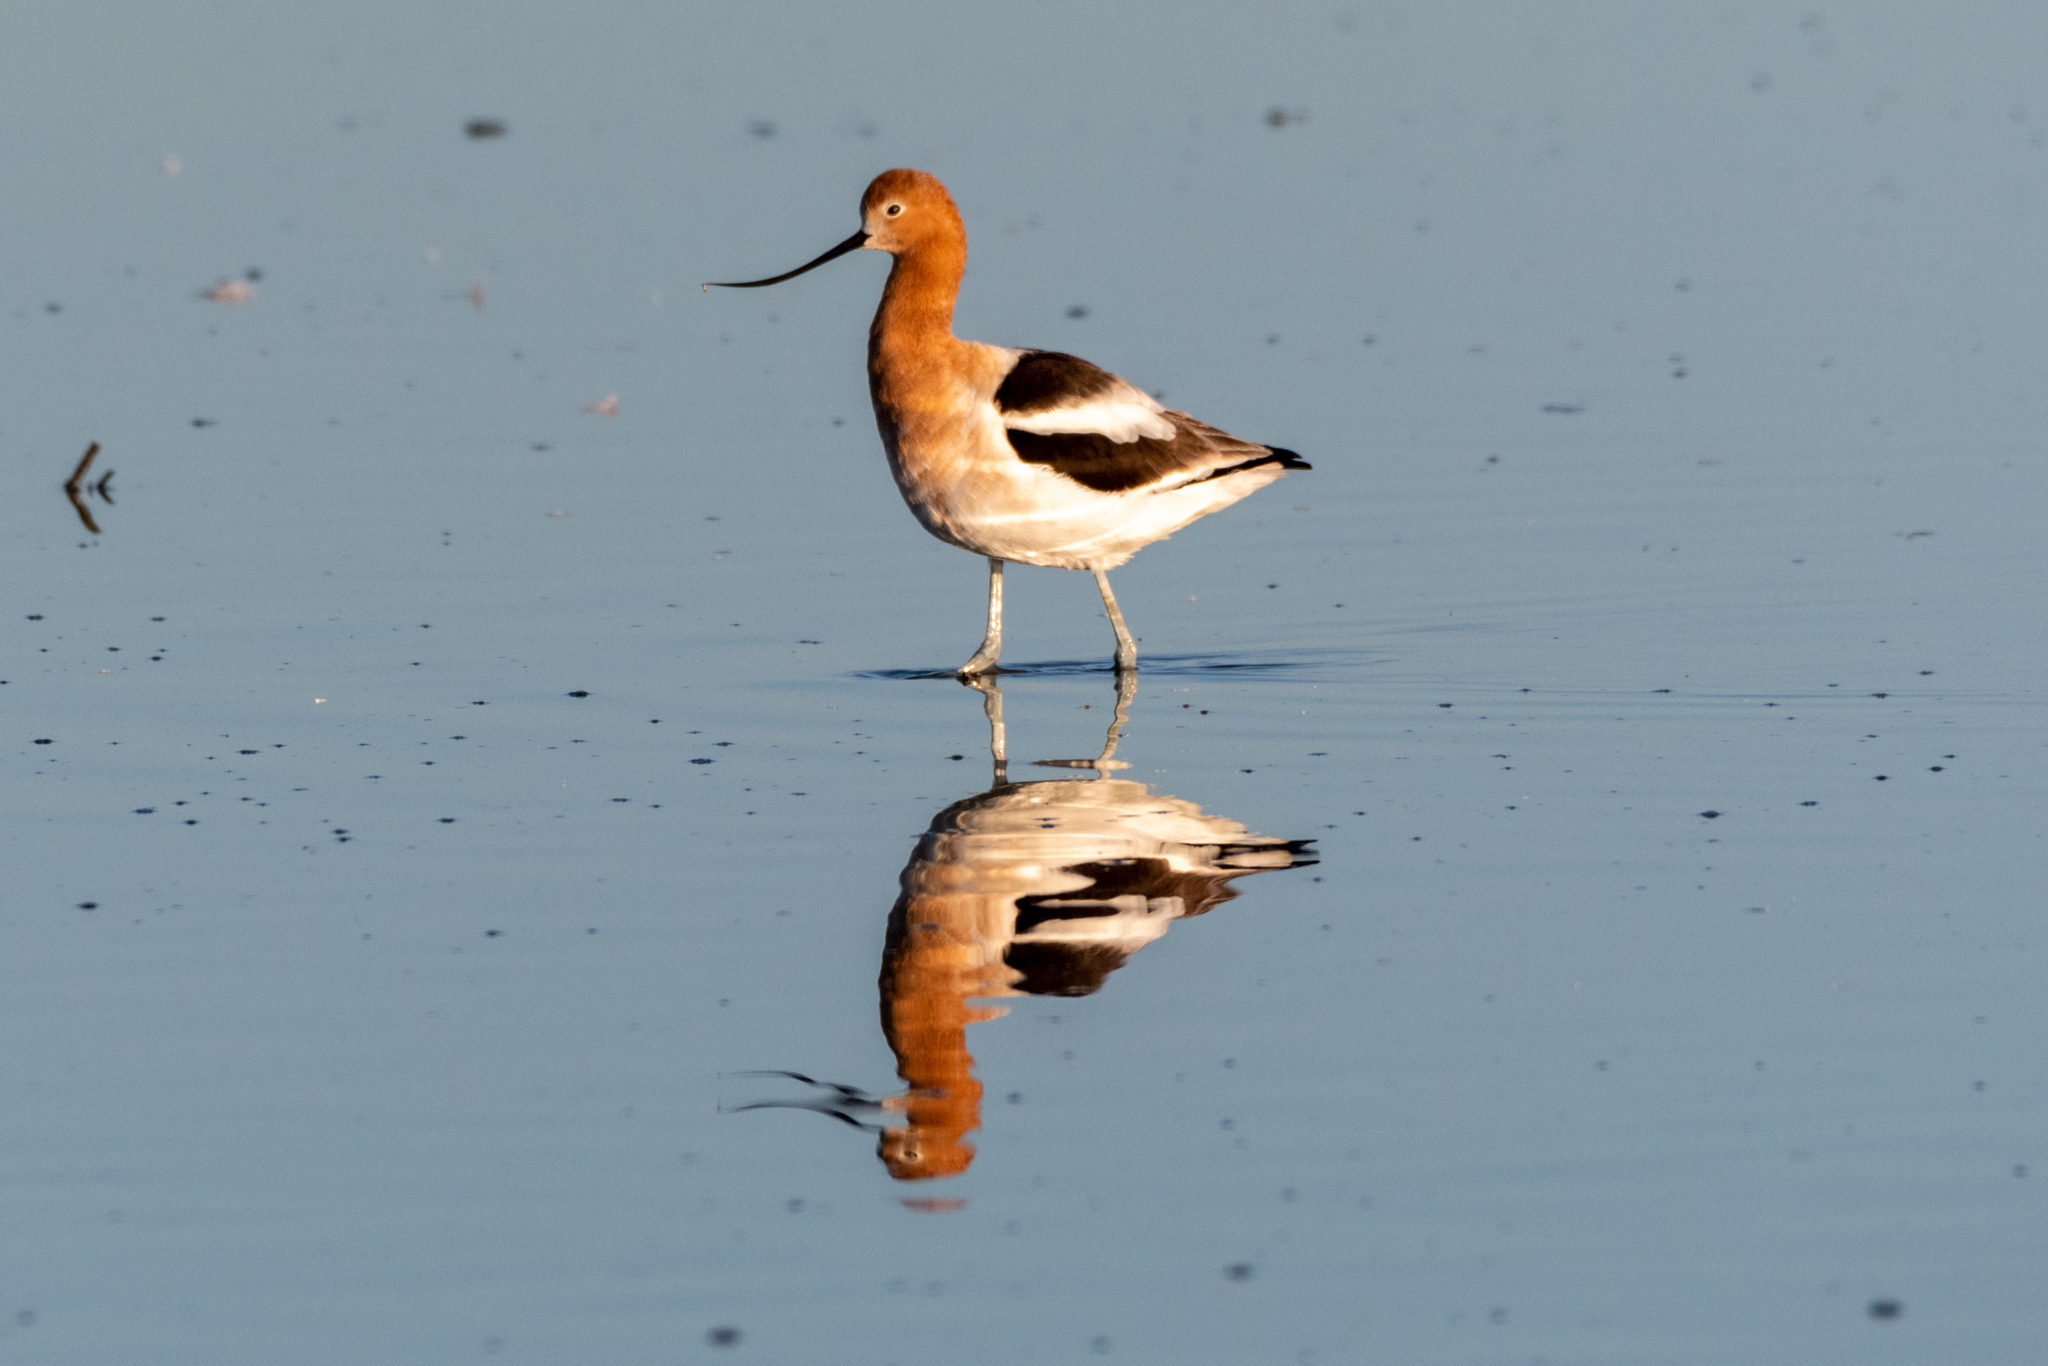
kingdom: Animalia
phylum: Chordata
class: Aves
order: Charadriiformes
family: Recurvirostridae
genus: Recurvirostra
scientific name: Recurvirostra americana
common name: American avocet
